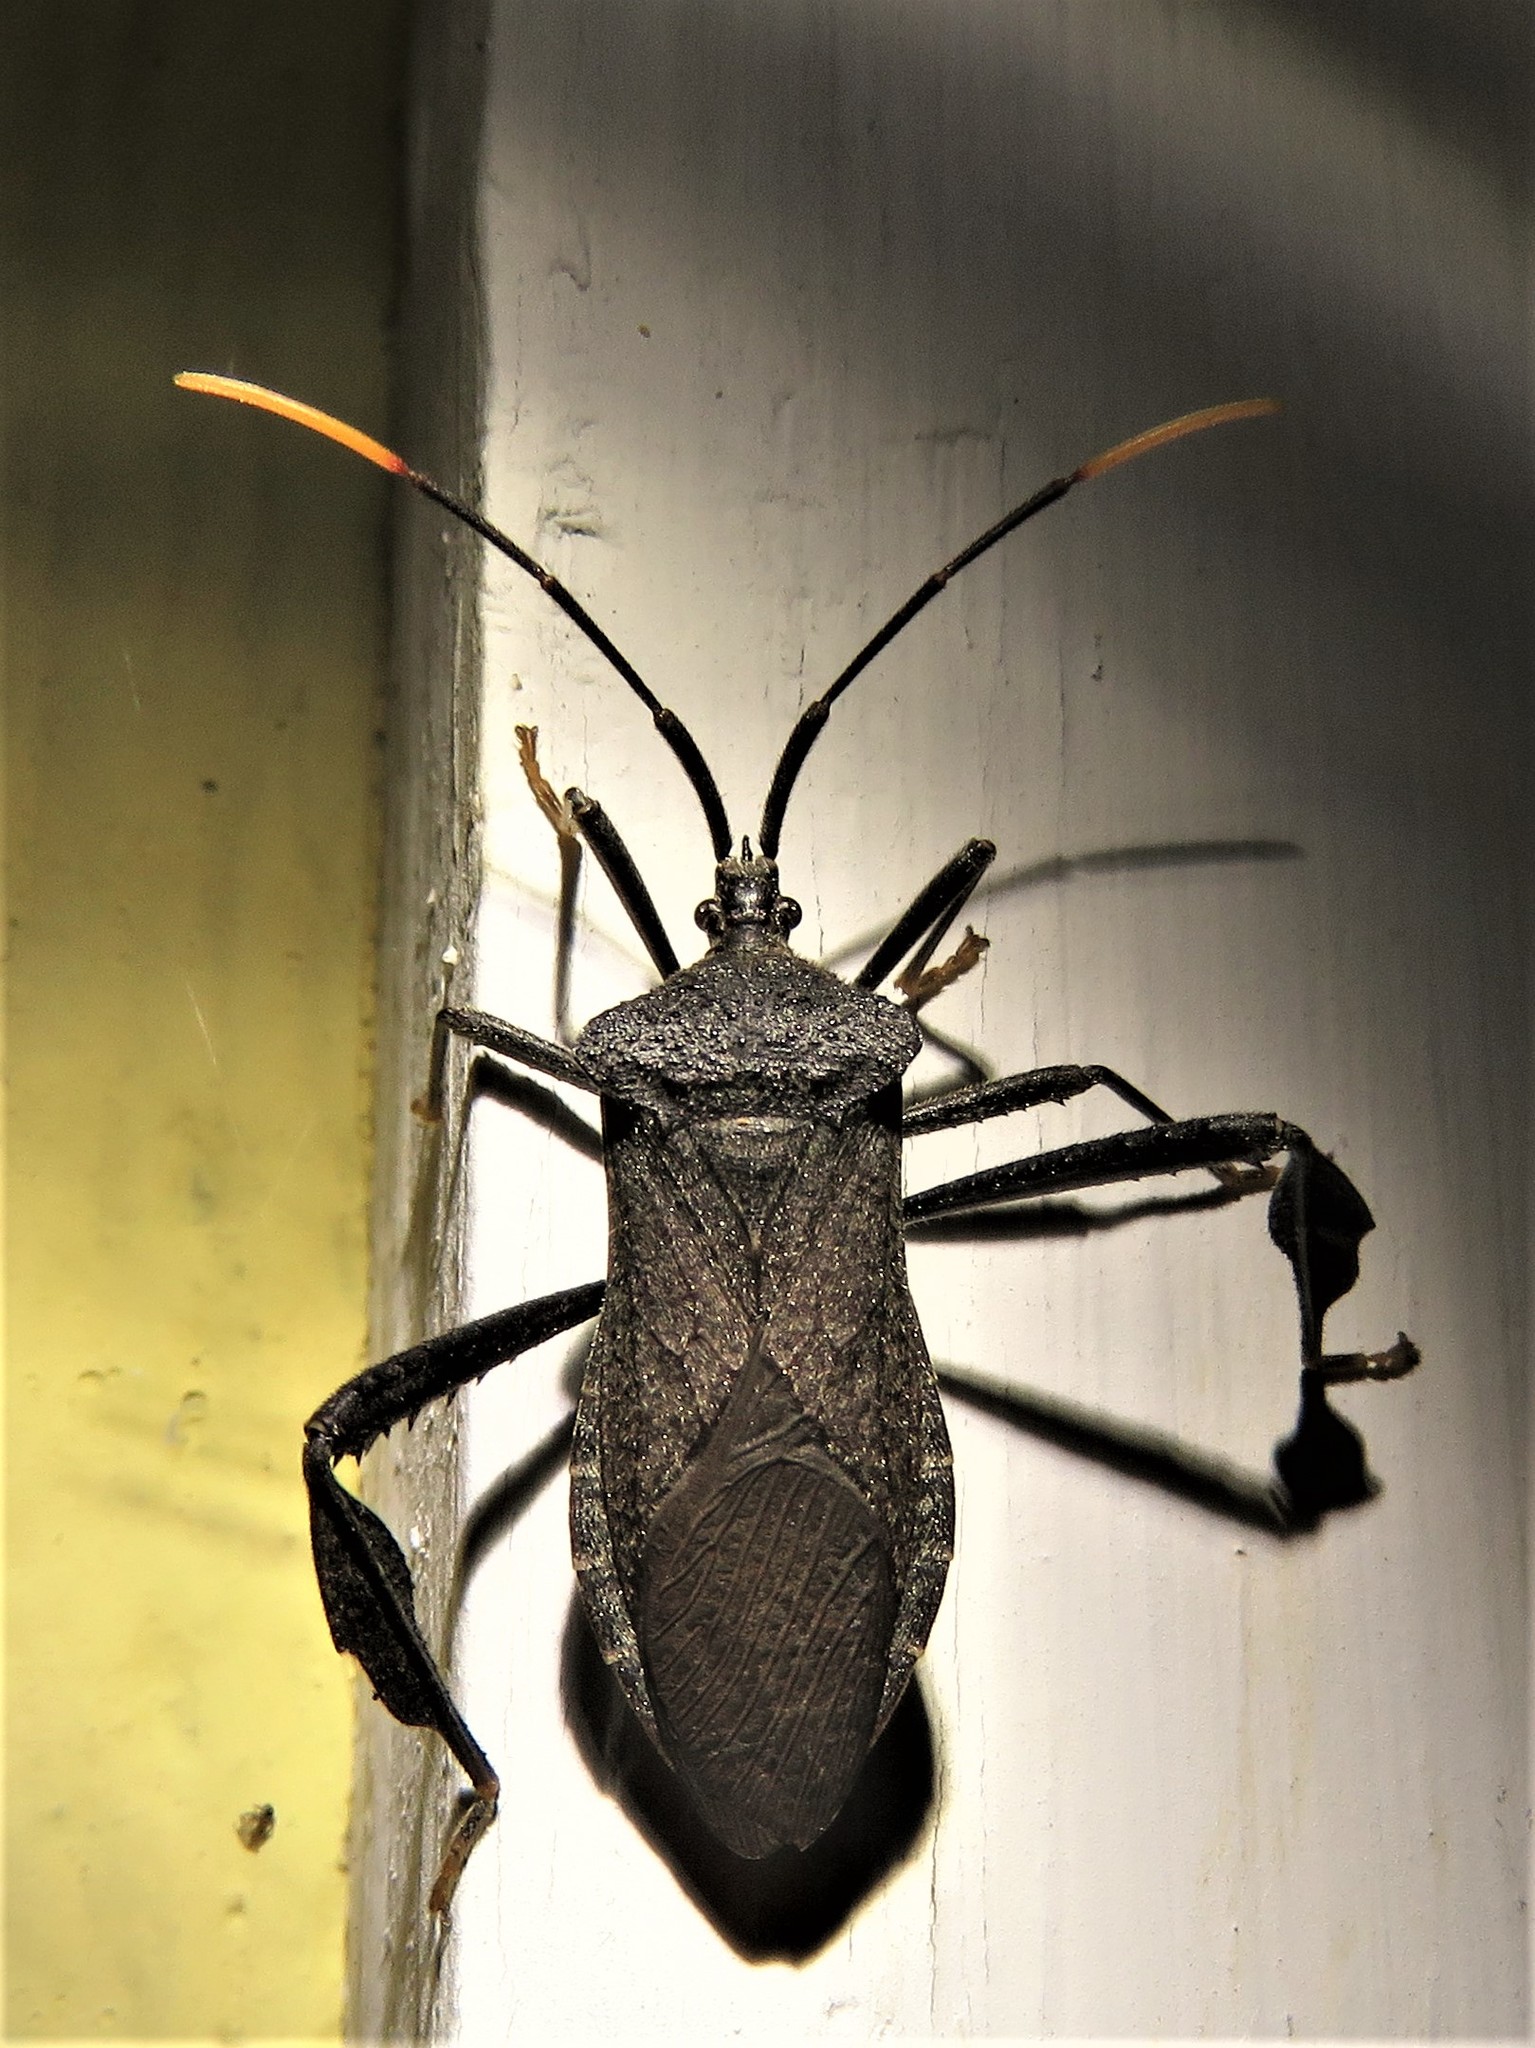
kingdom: Animalia
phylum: Arthropoda
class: Insecta
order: Hemiptera
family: Coreidae
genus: Acanthocephala
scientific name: Acanthocephala terminalis
